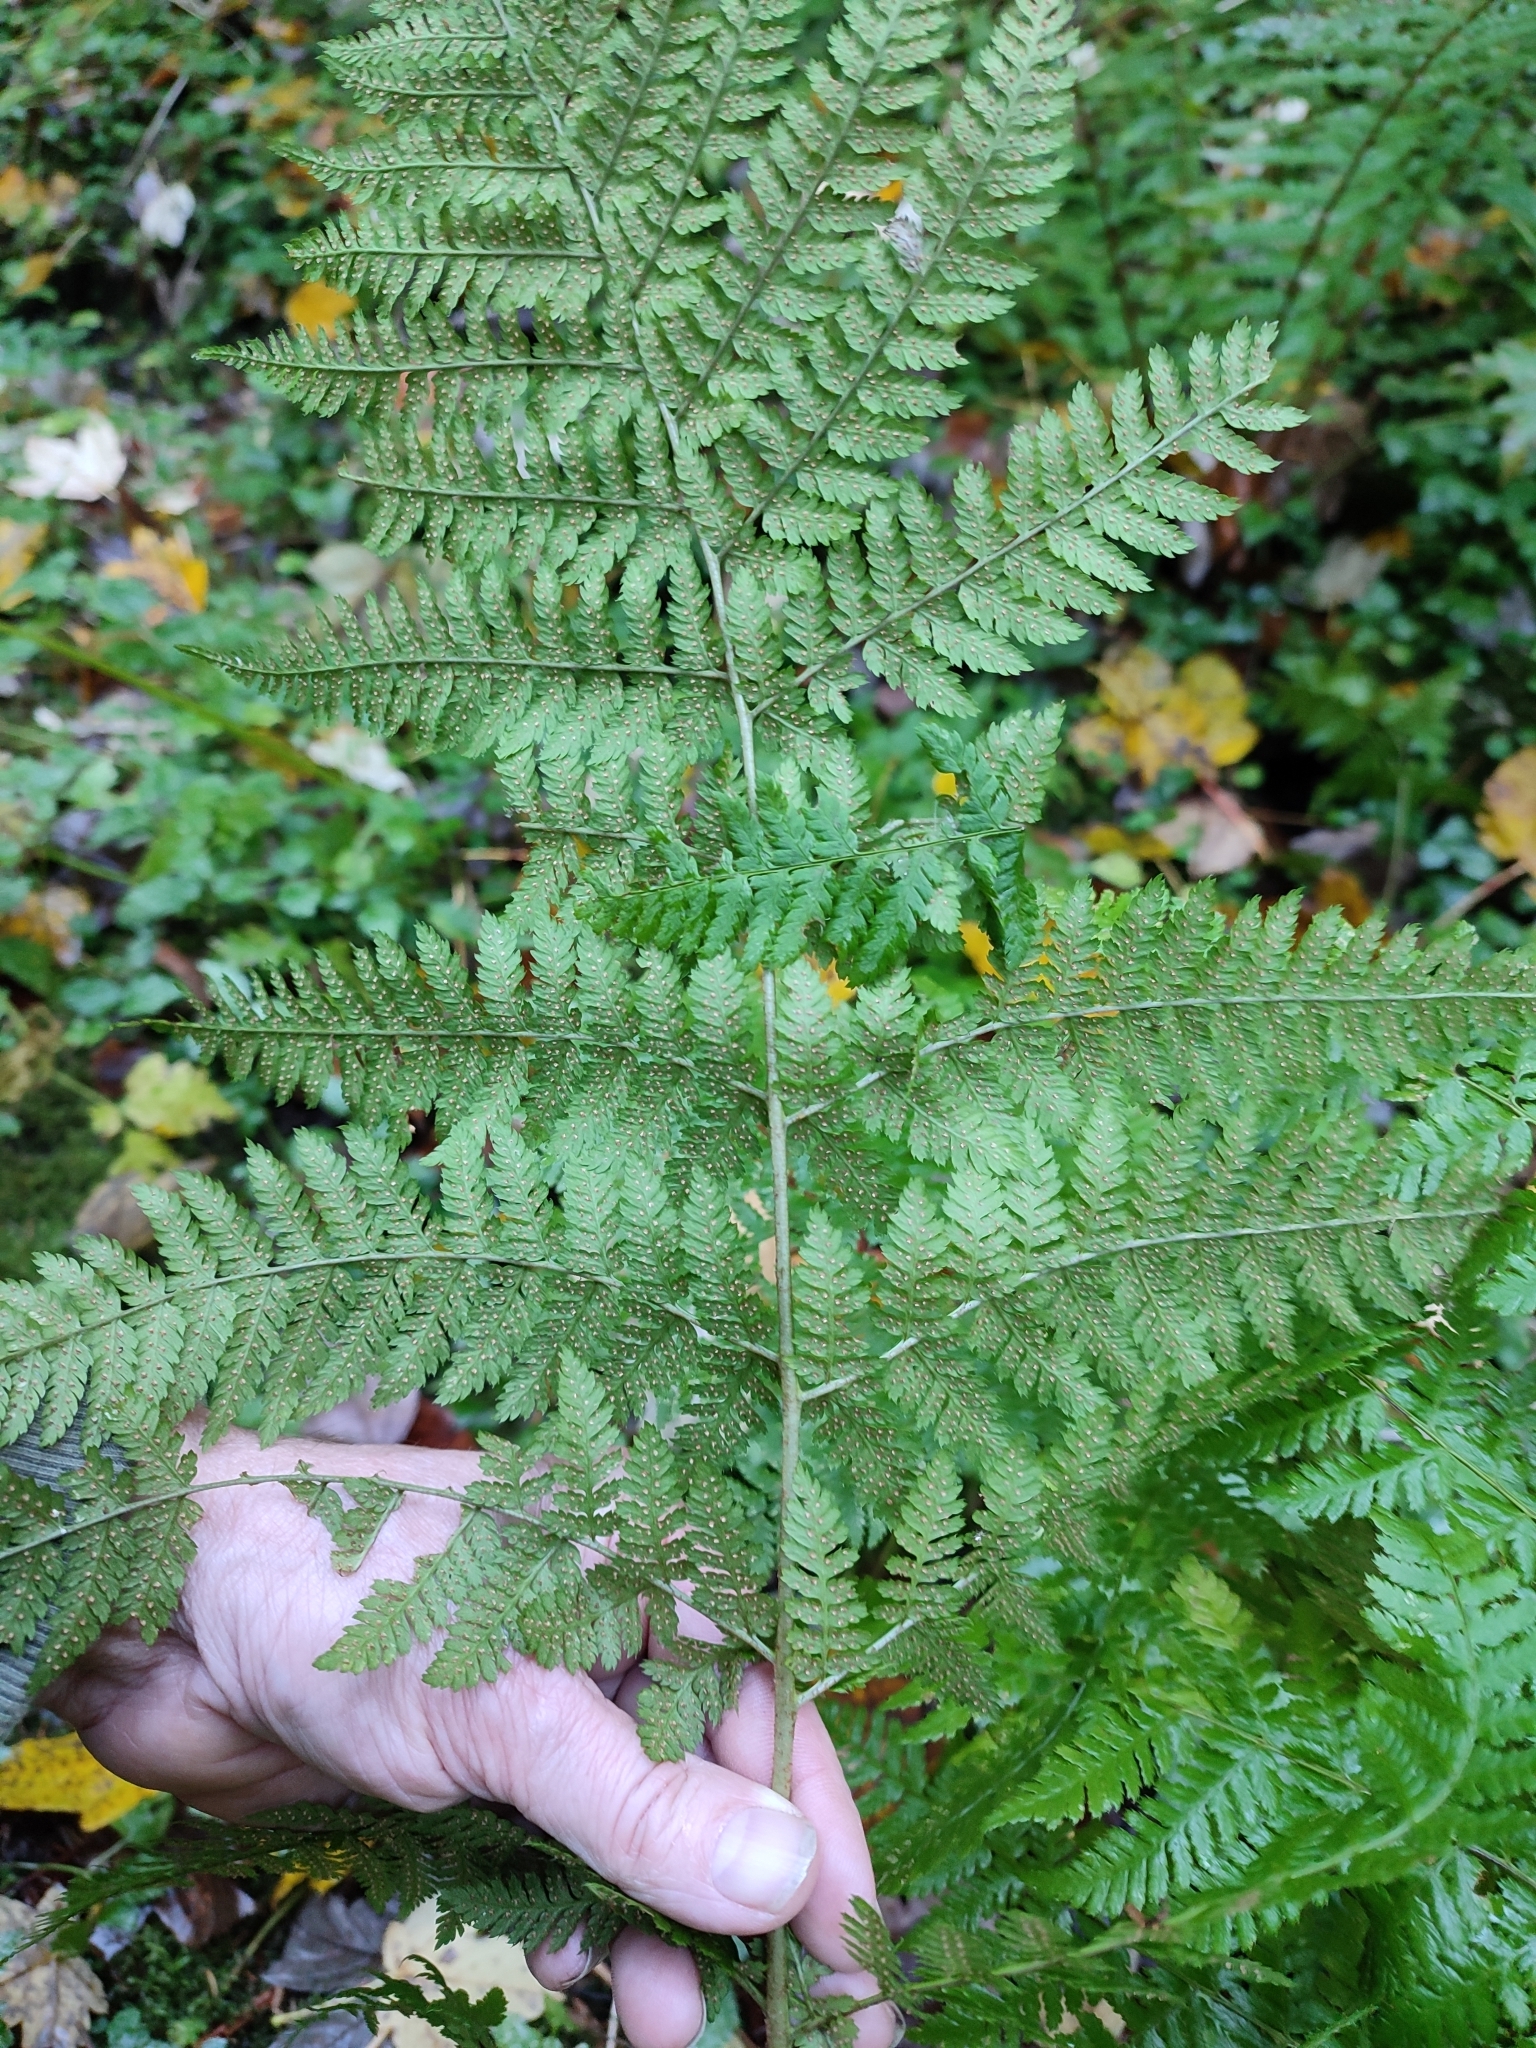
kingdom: Plantae
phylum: Tracheophyta
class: Polypodiopsida
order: Polypodiales
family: Dryopteridaceae
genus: Dryopteris
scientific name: Dryopteris expansa
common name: Northern buckler fern
